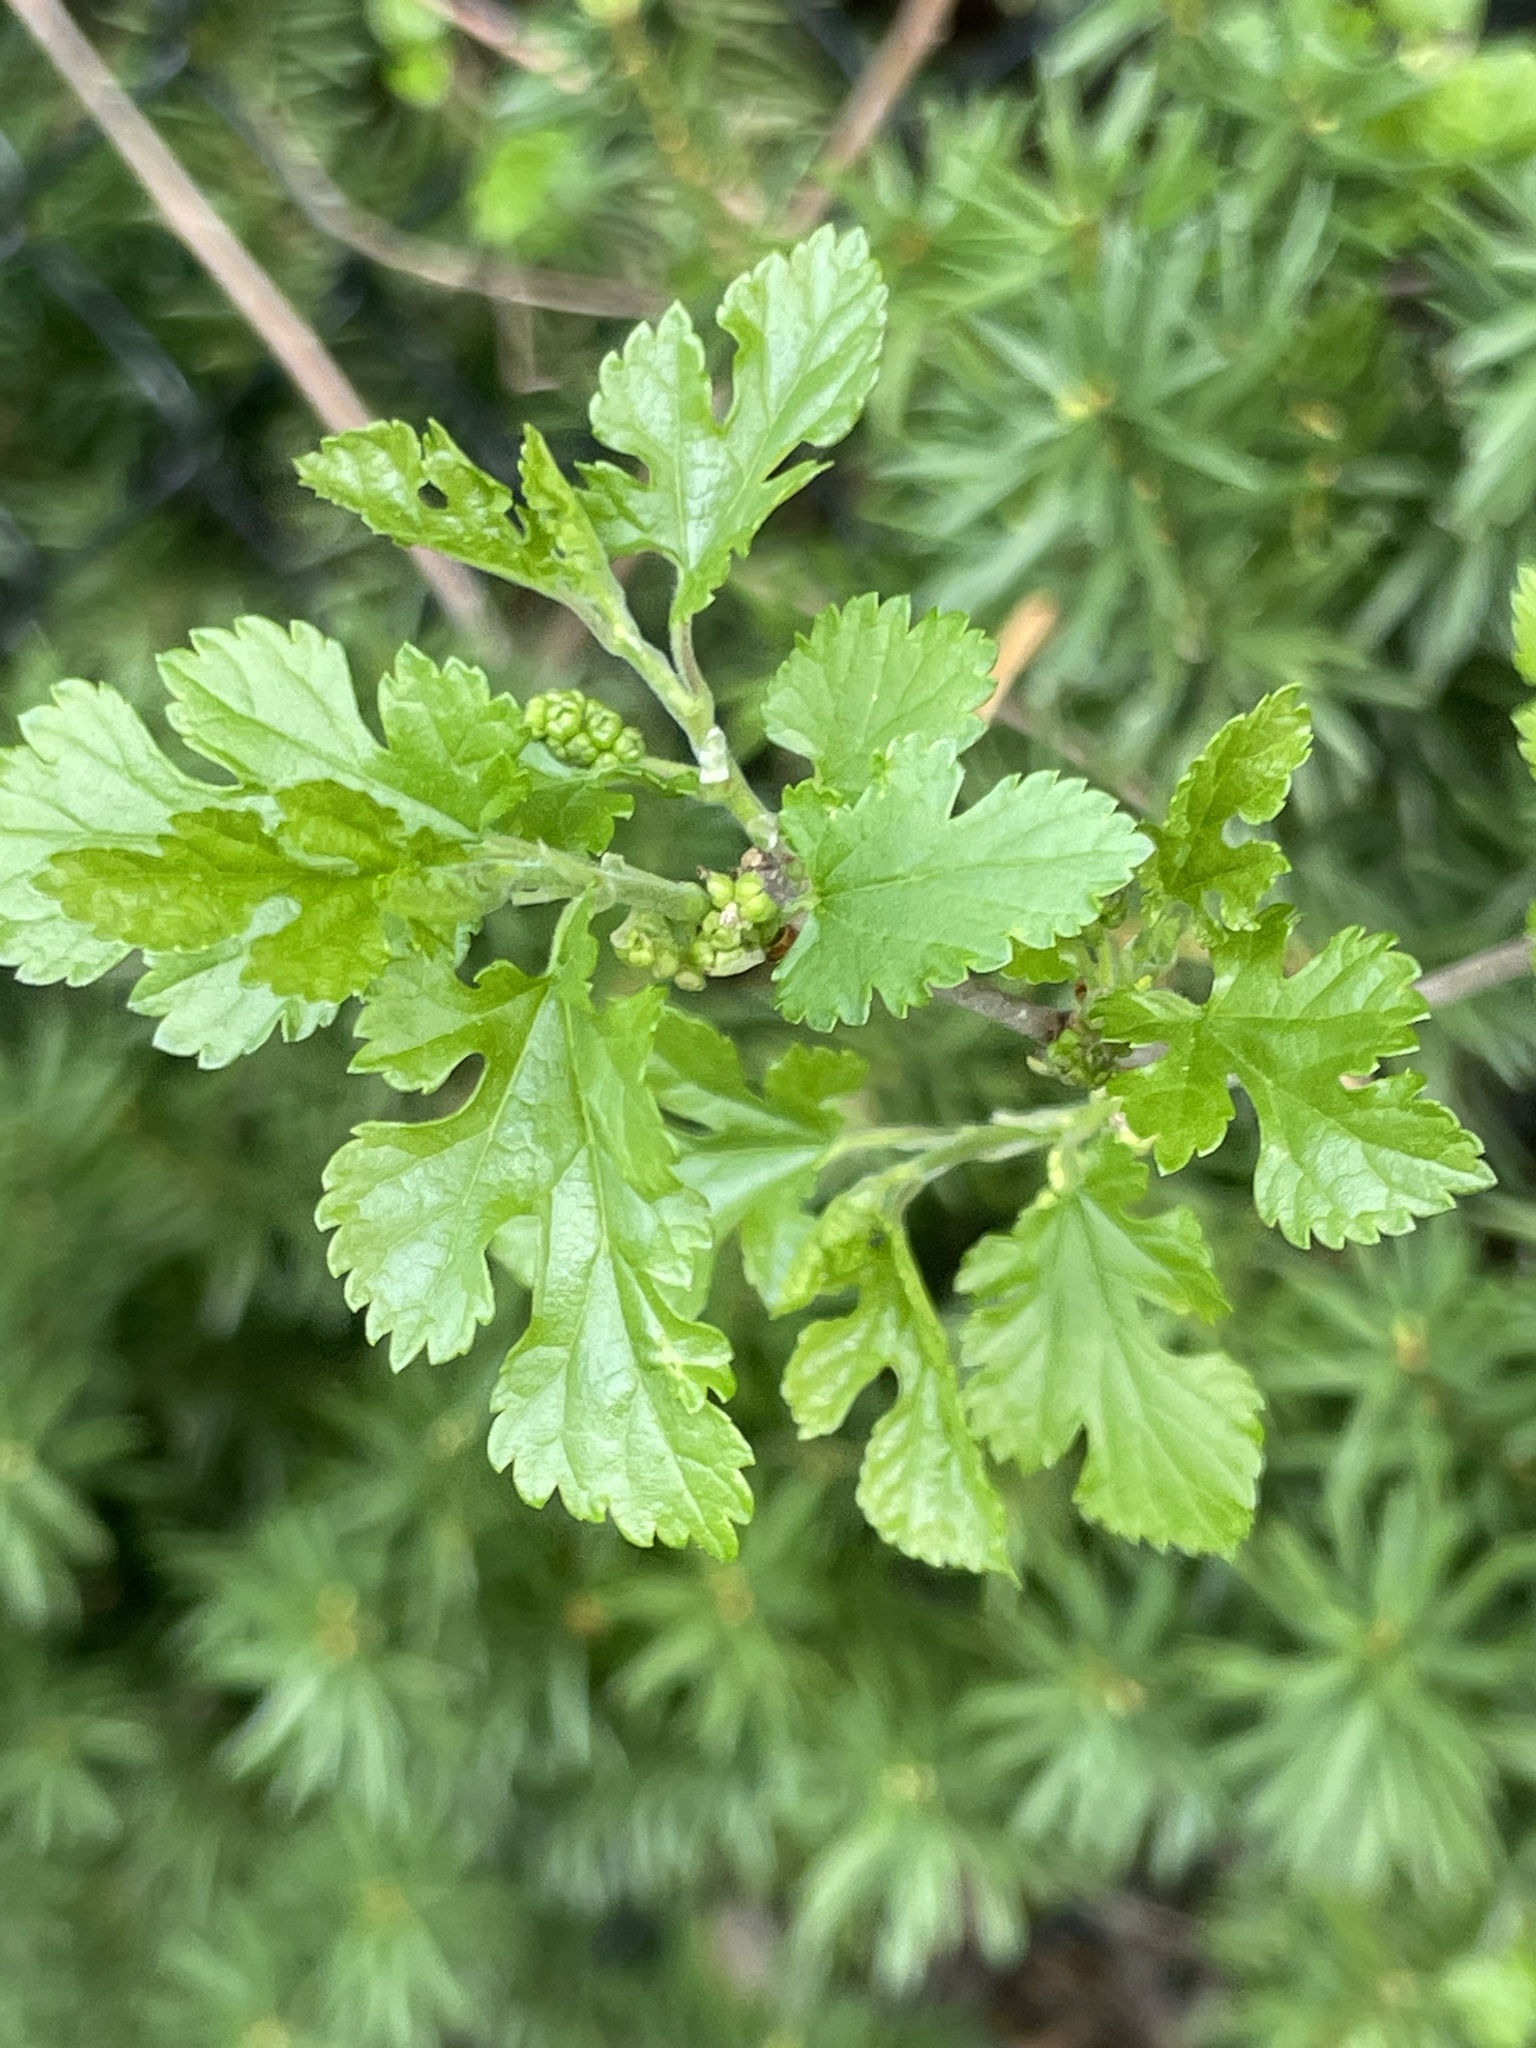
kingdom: Plantae
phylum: Tracheophyta
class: Magnoliopsida
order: Rosales
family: Moraceae
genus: Morus
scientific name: Morus alba
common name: White mulberry
